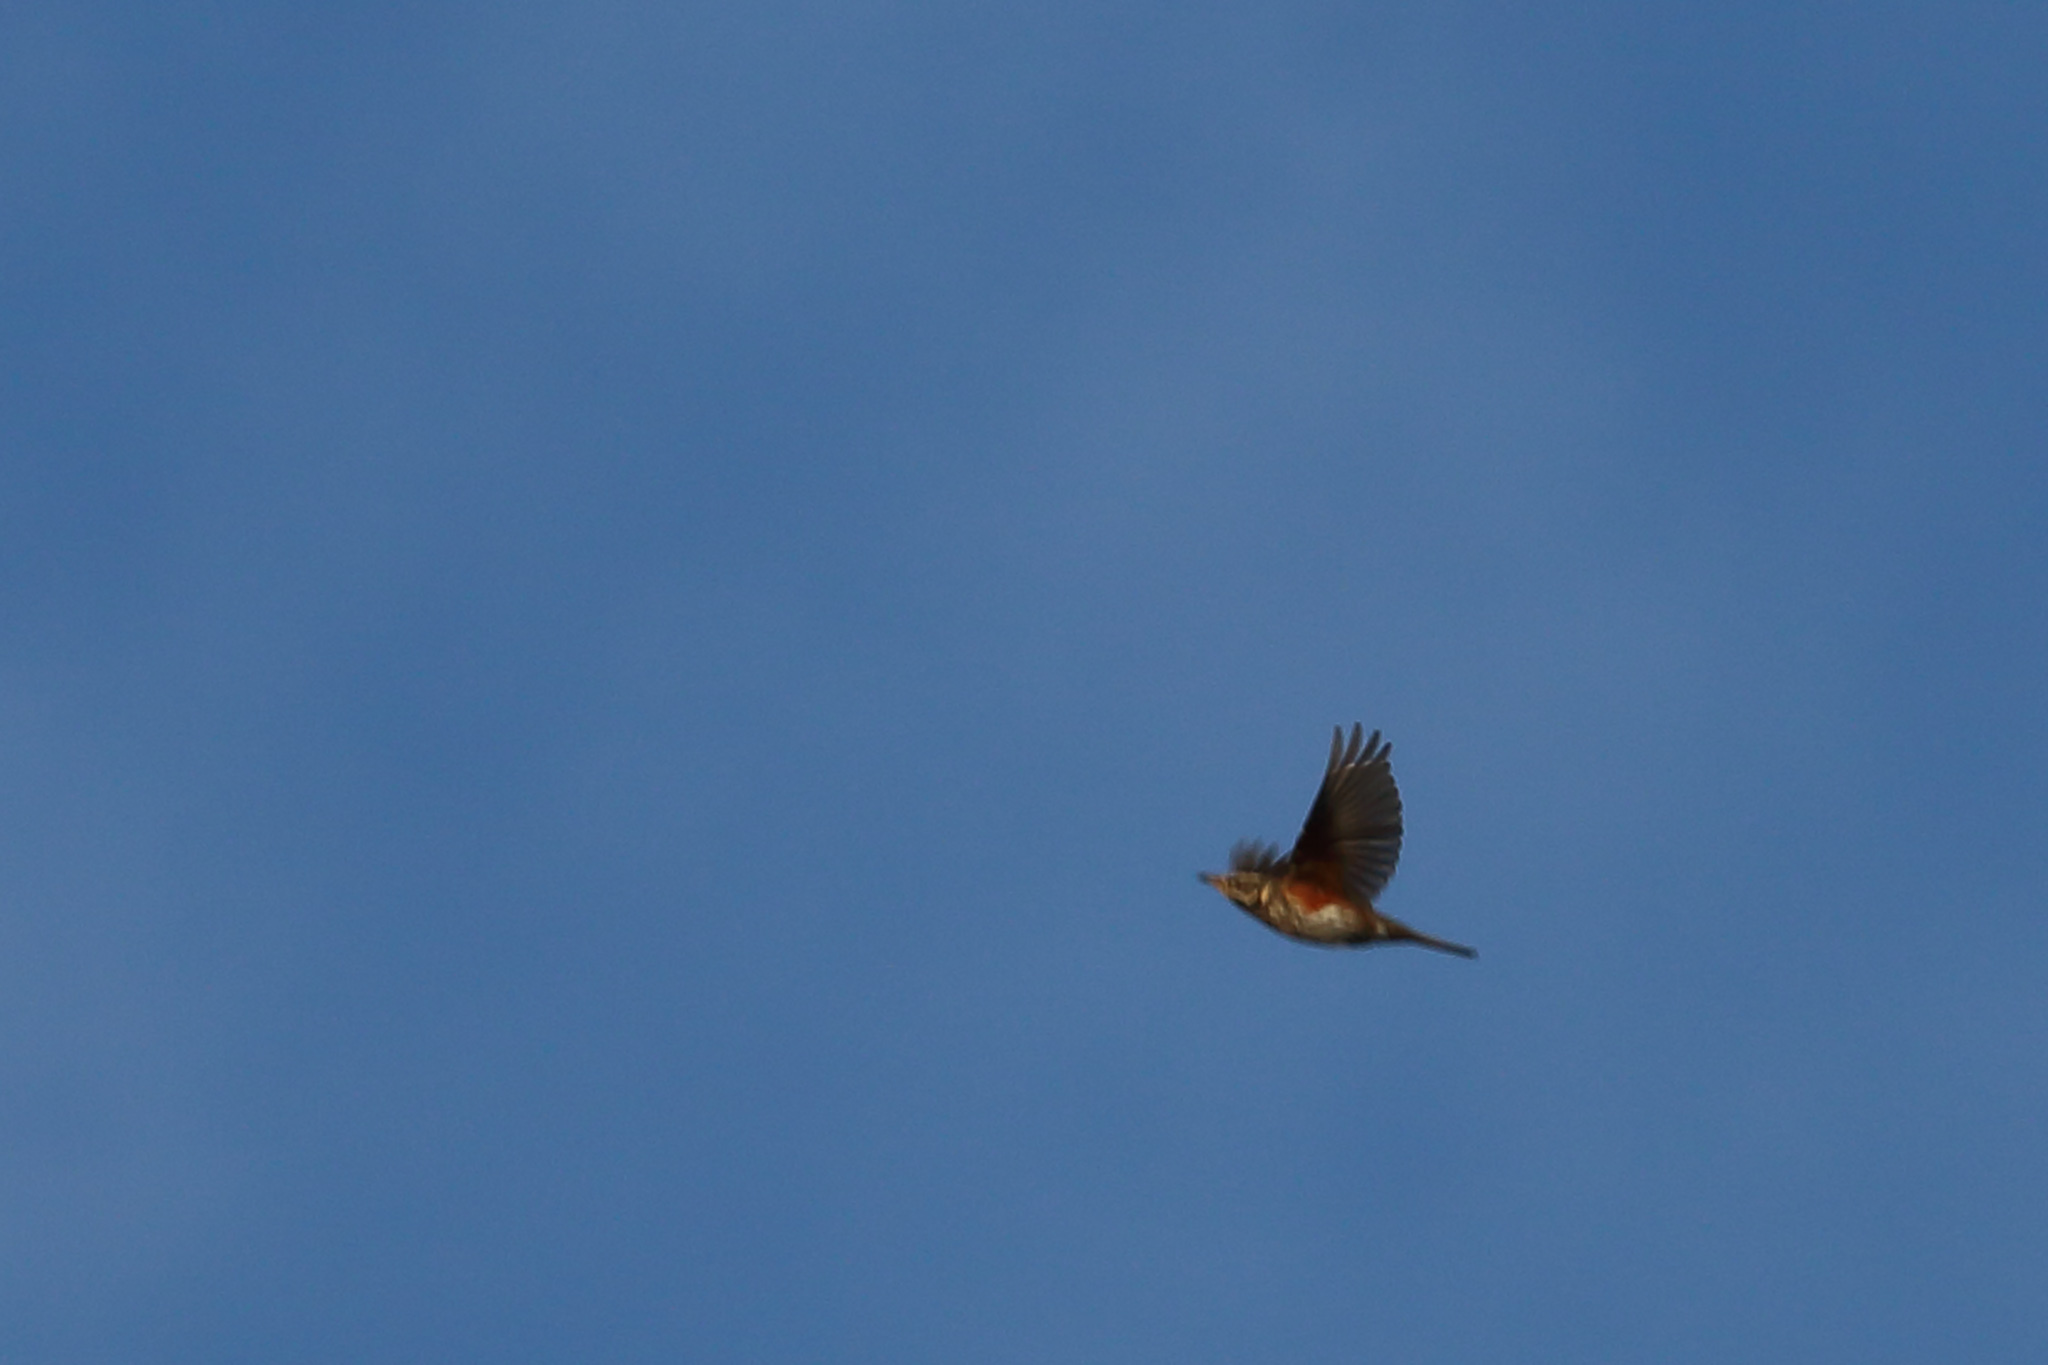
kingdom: Animalia
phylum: Chordata
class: Aves
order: Passeriformes
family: Turdidae
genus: Turdus
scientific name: Turdus iliacus
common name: Redwing
